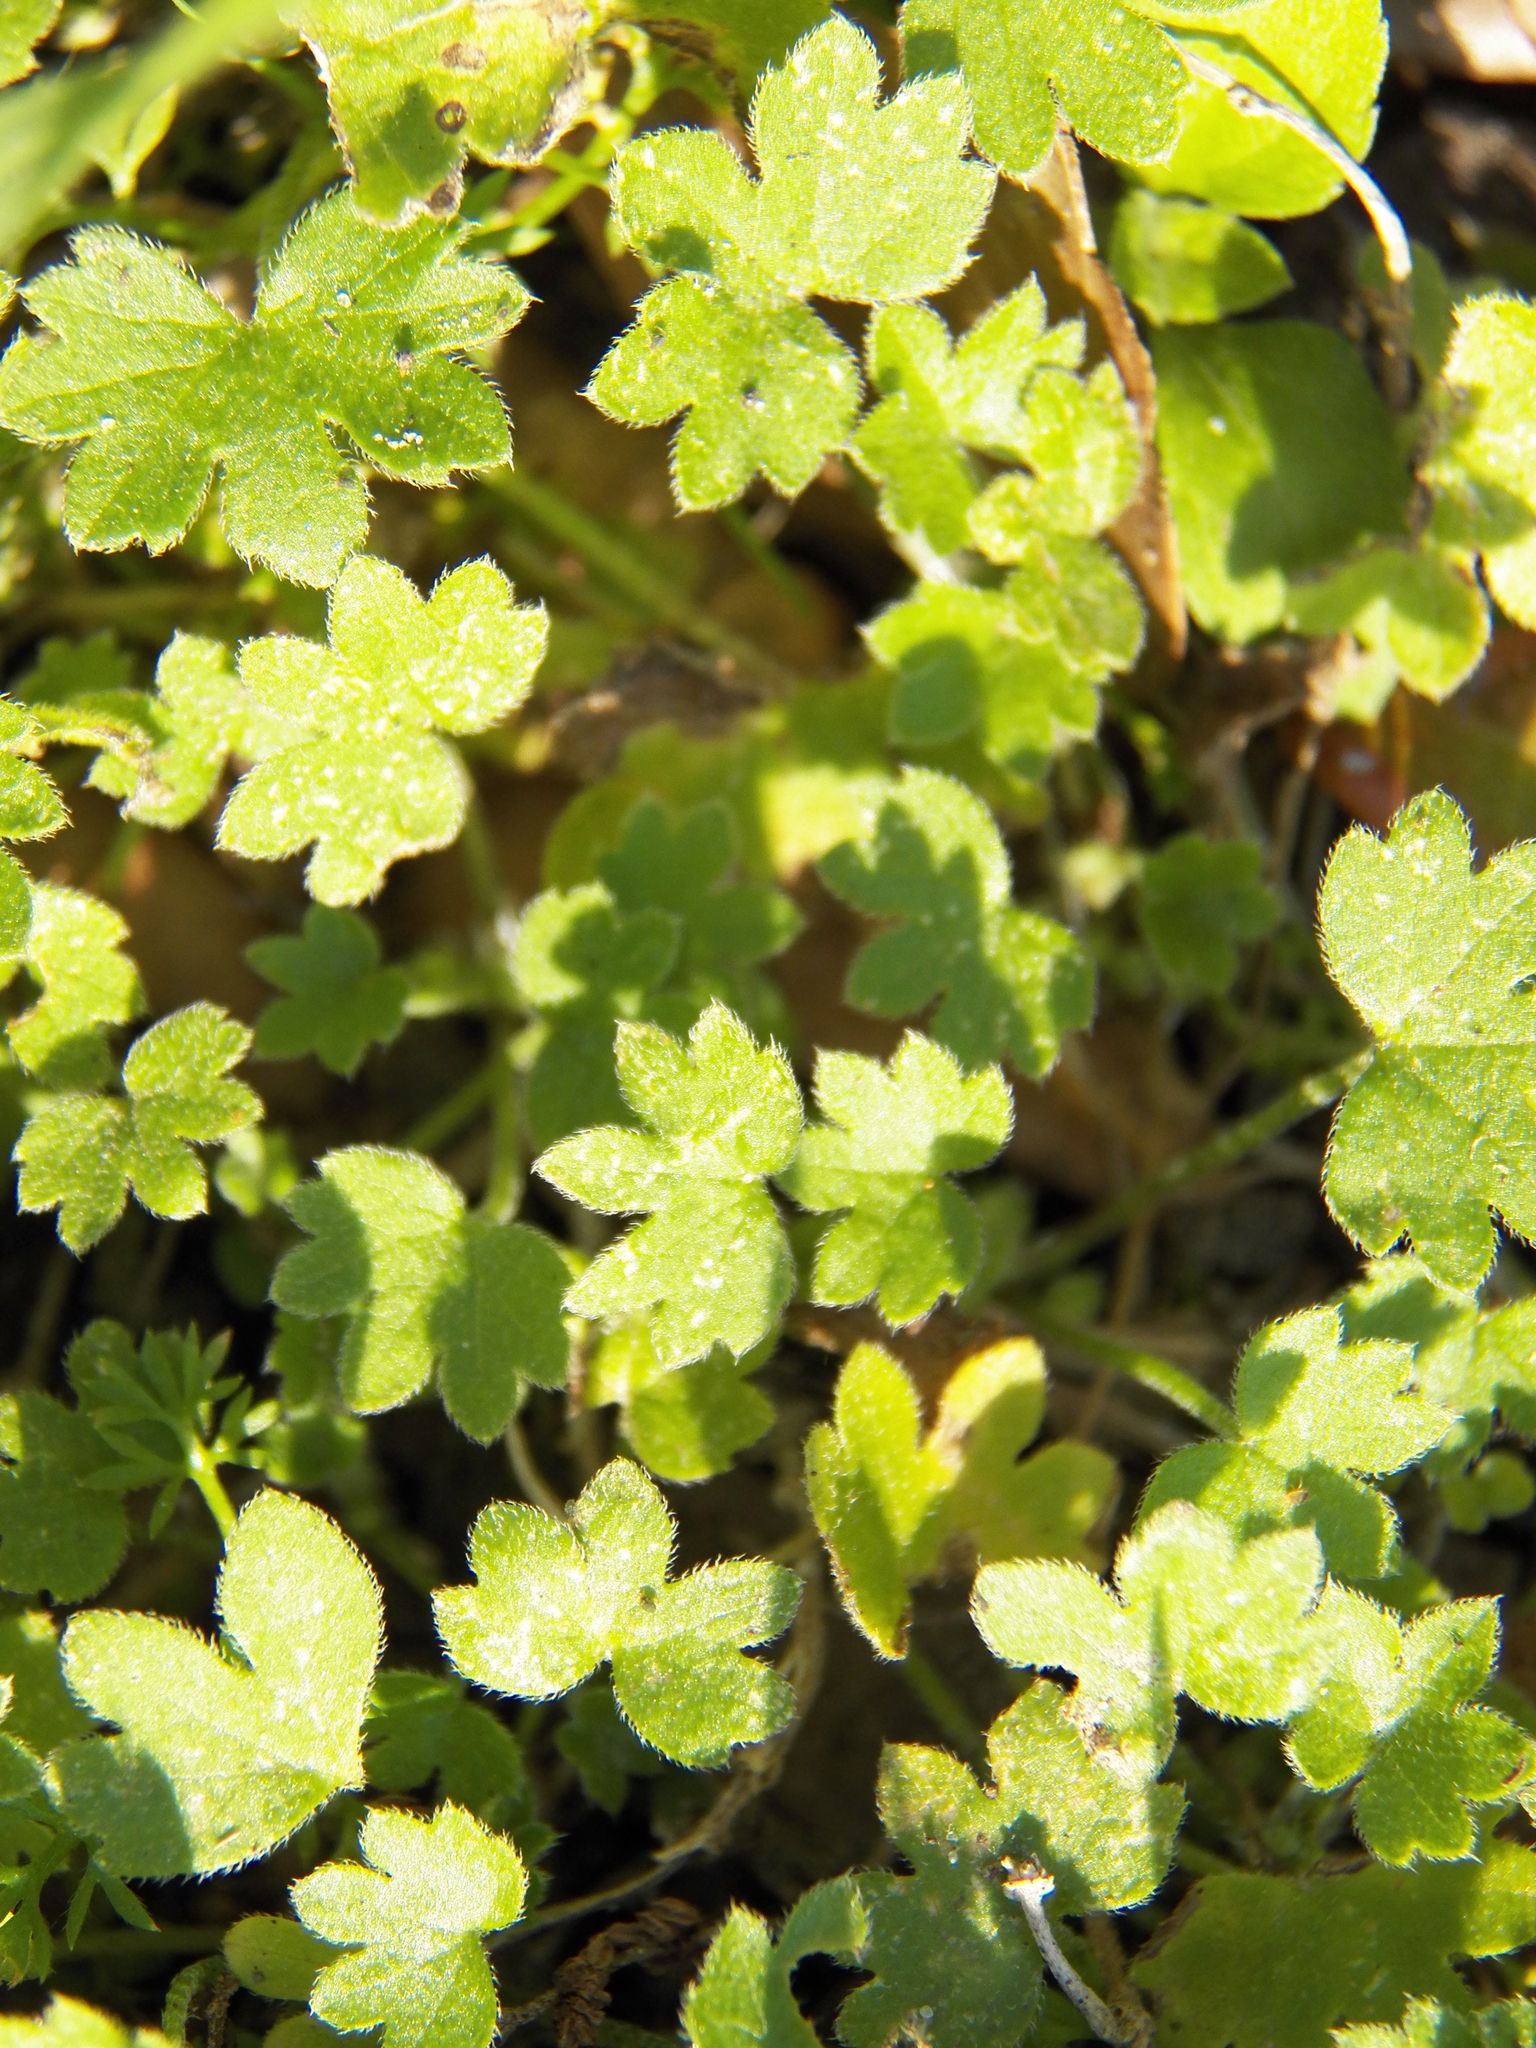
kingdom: Plantae
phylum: Tracheophyta
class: Magnoliopsida
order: Apiales
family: Apiaceae
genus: Bowlesia
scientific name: Bowlesia incana
